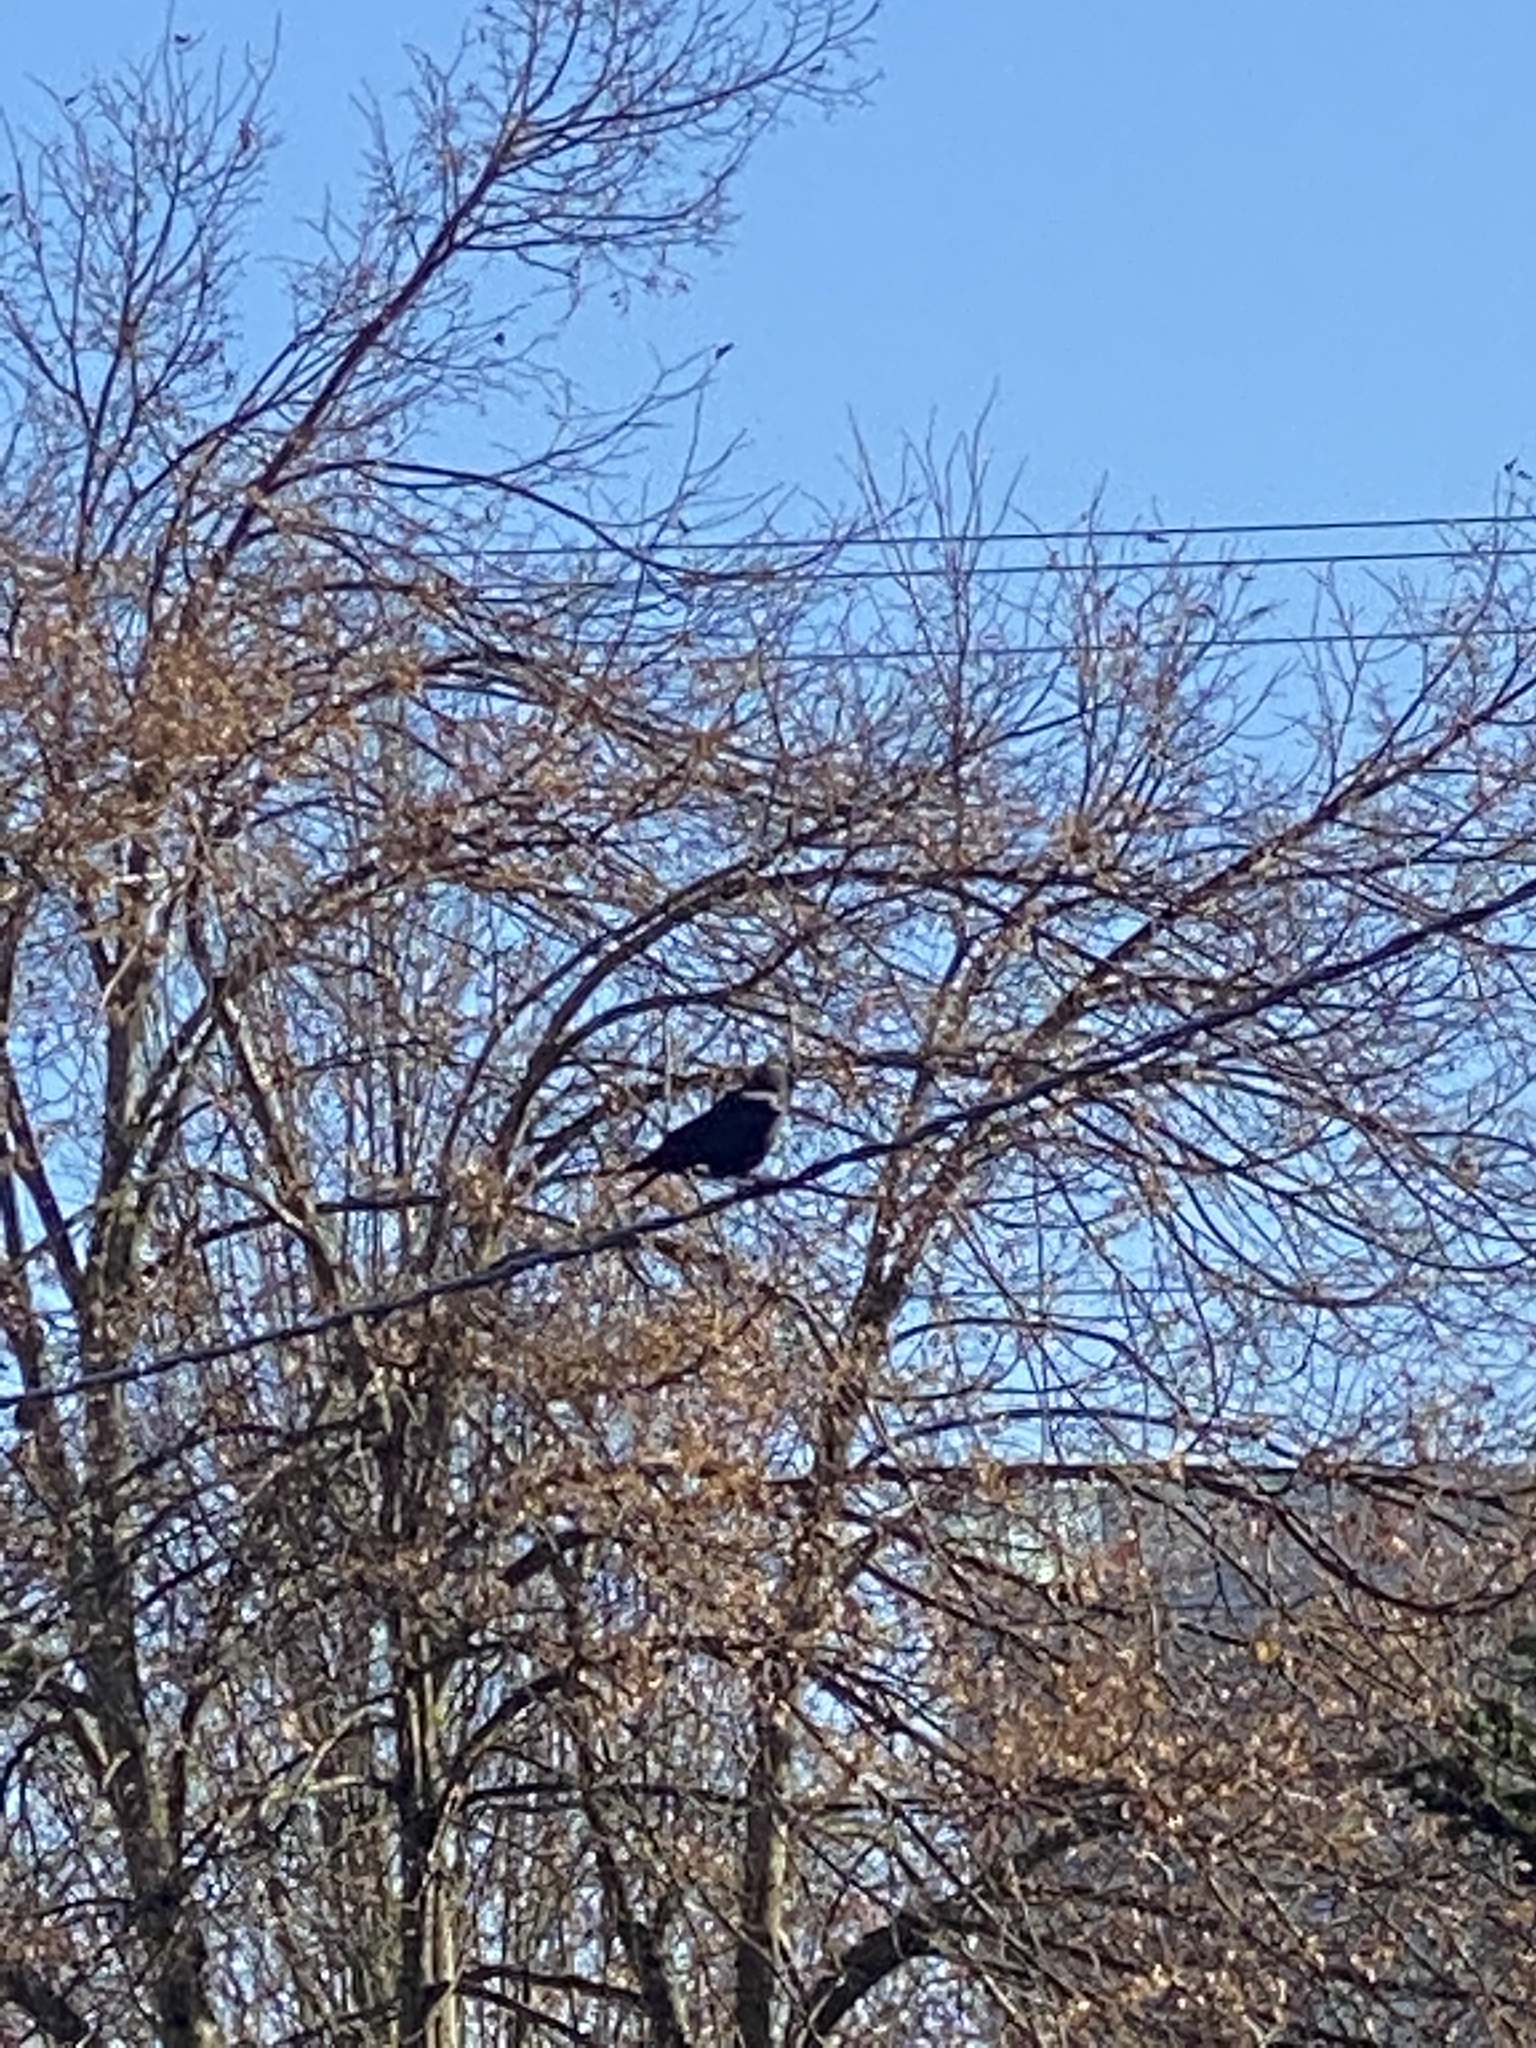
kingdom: Animalia
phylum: Chordata
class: Aves
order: Passeriformes
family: Corvidae
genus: Corvus
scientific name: Corvus brachyrhynchos
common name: American crow
